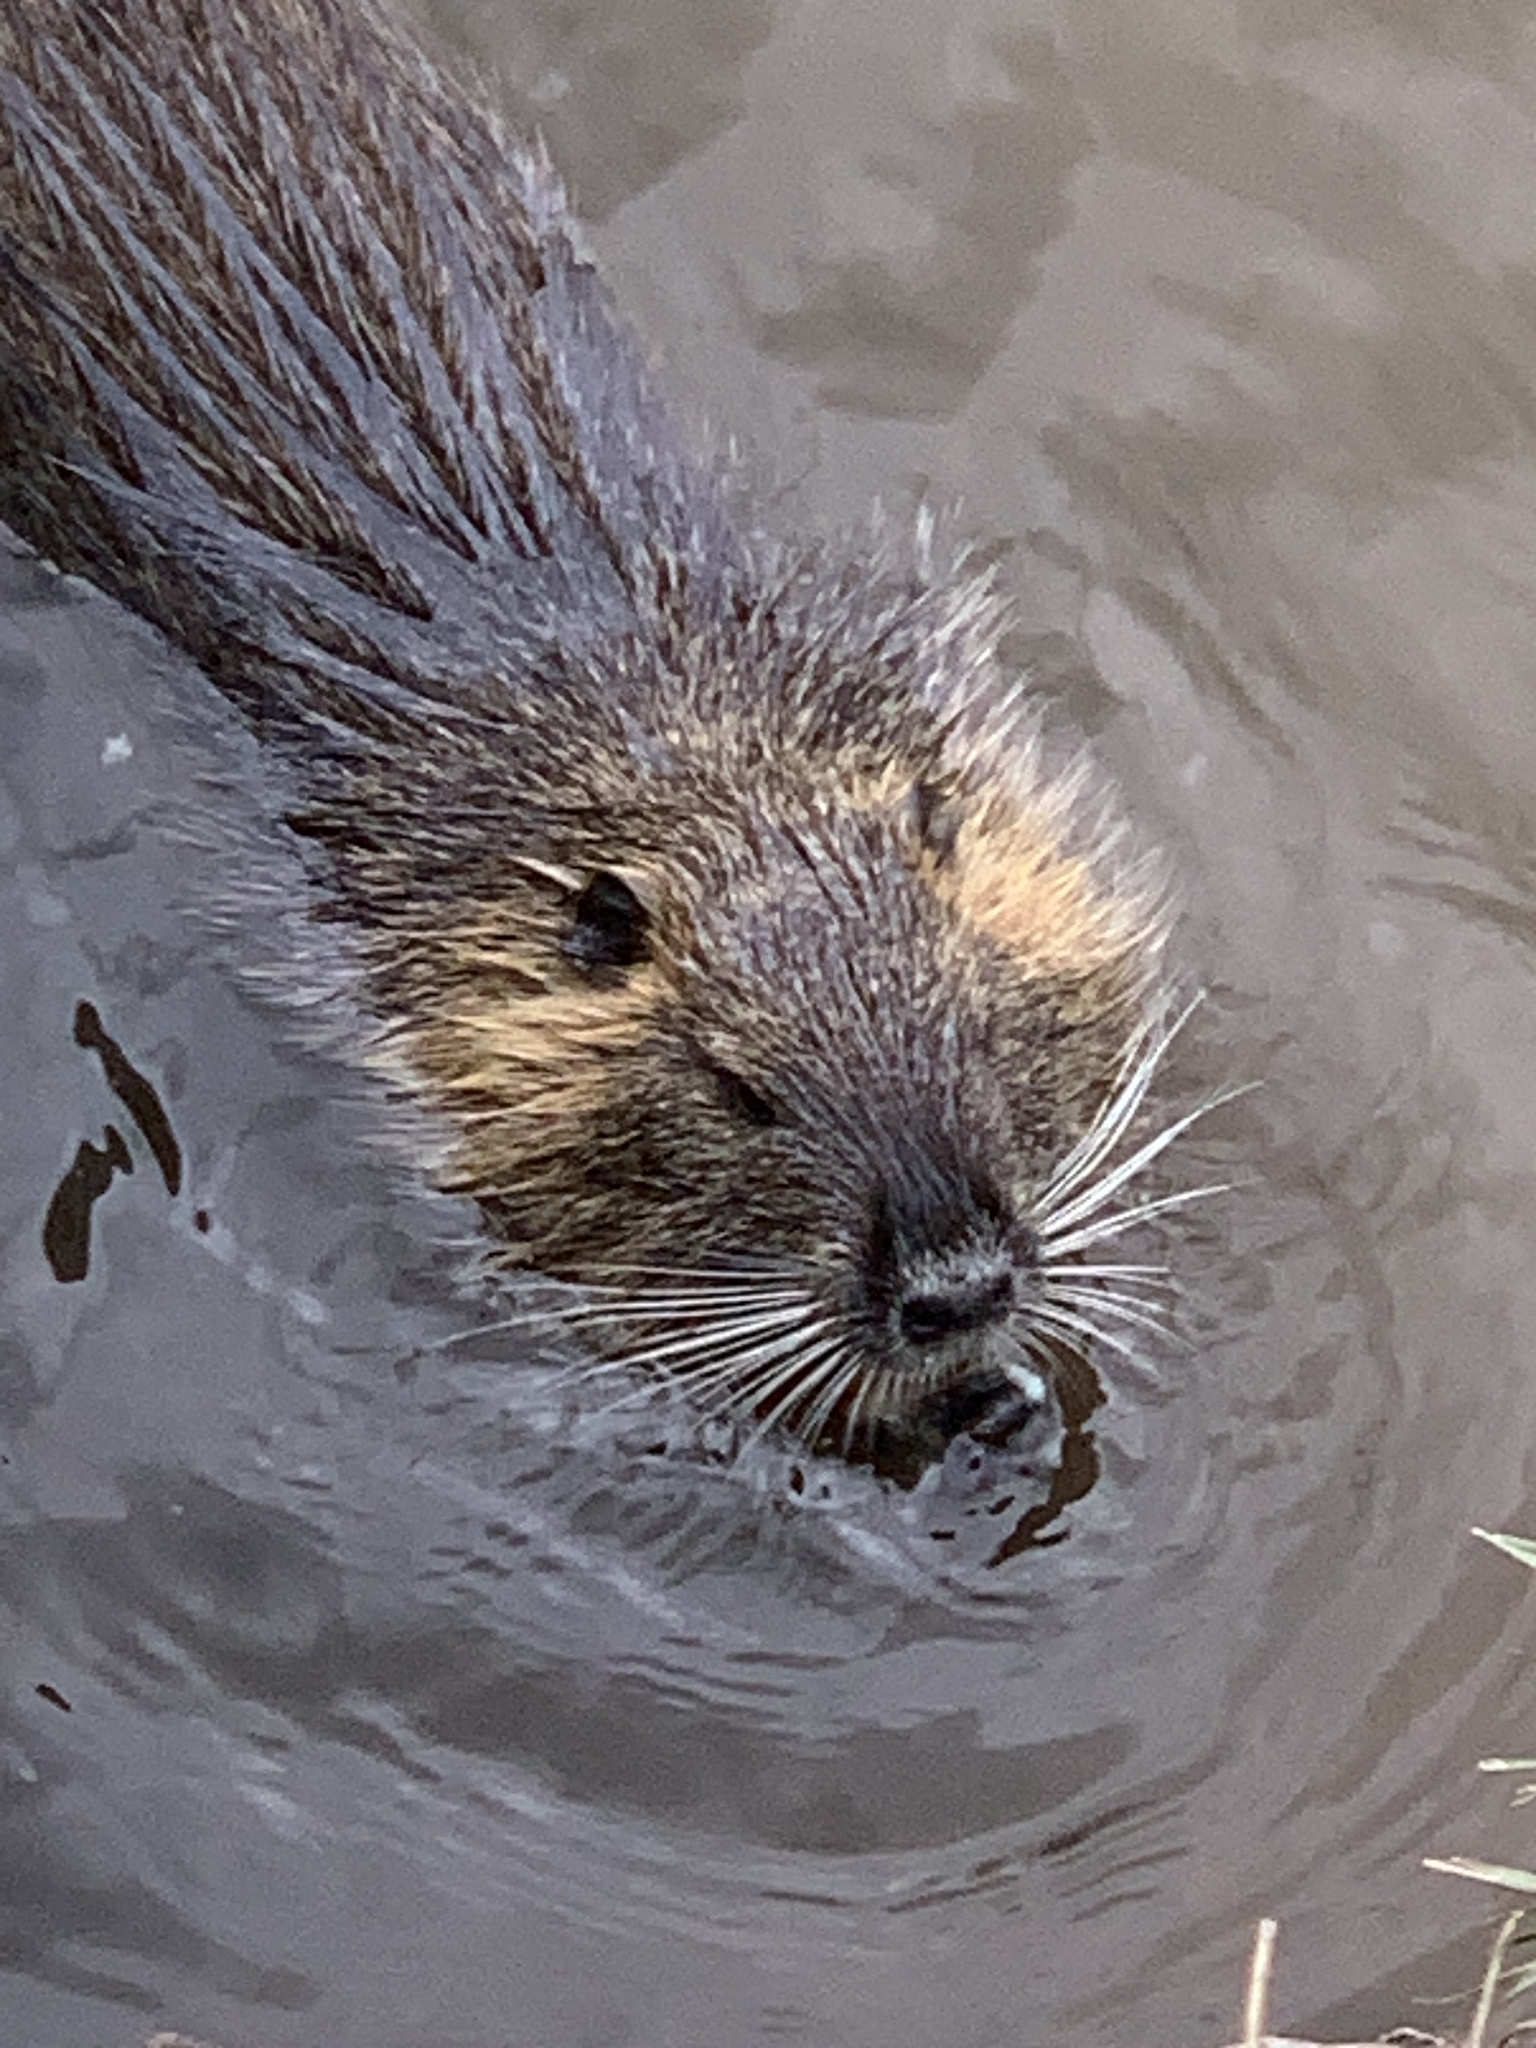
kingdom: Animalia
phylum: Chordata
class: Mammalia
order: Rodentia
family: Myocastoridae
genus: Myocastor
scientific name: Myocastor coypus
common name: Coypu
